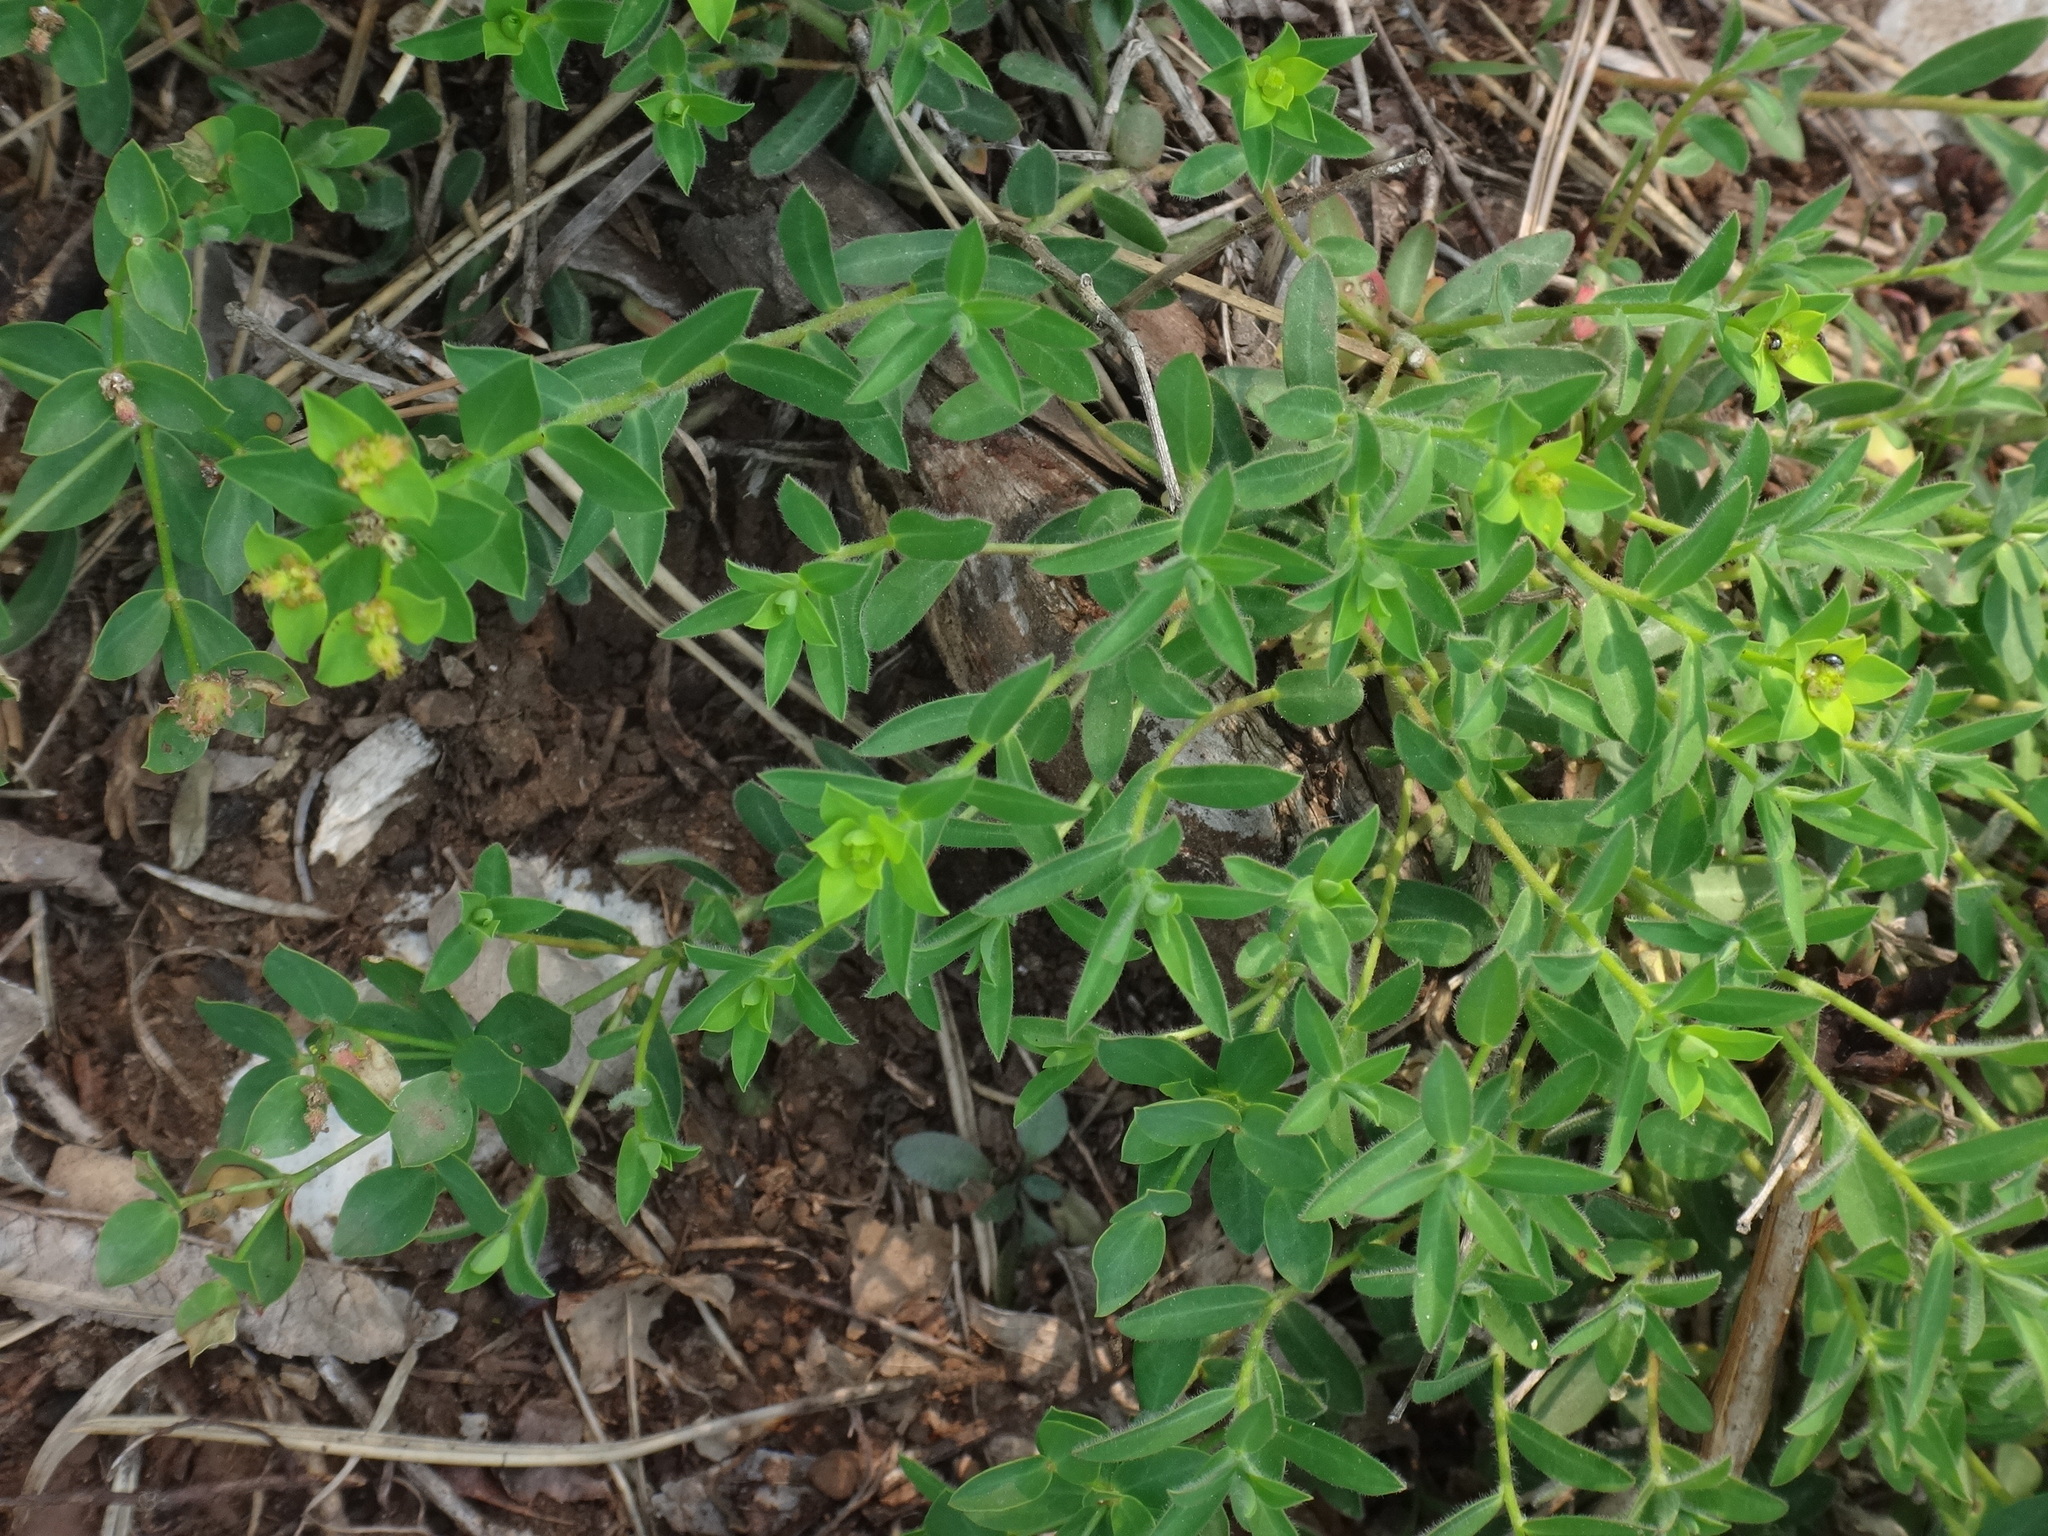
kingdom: Plantae
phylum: Tracheophyta
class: Magnoliopsida
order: Malpighiales
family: Euphorbiaceae
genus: Euphorbia
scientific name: Euphorbia fragifera
